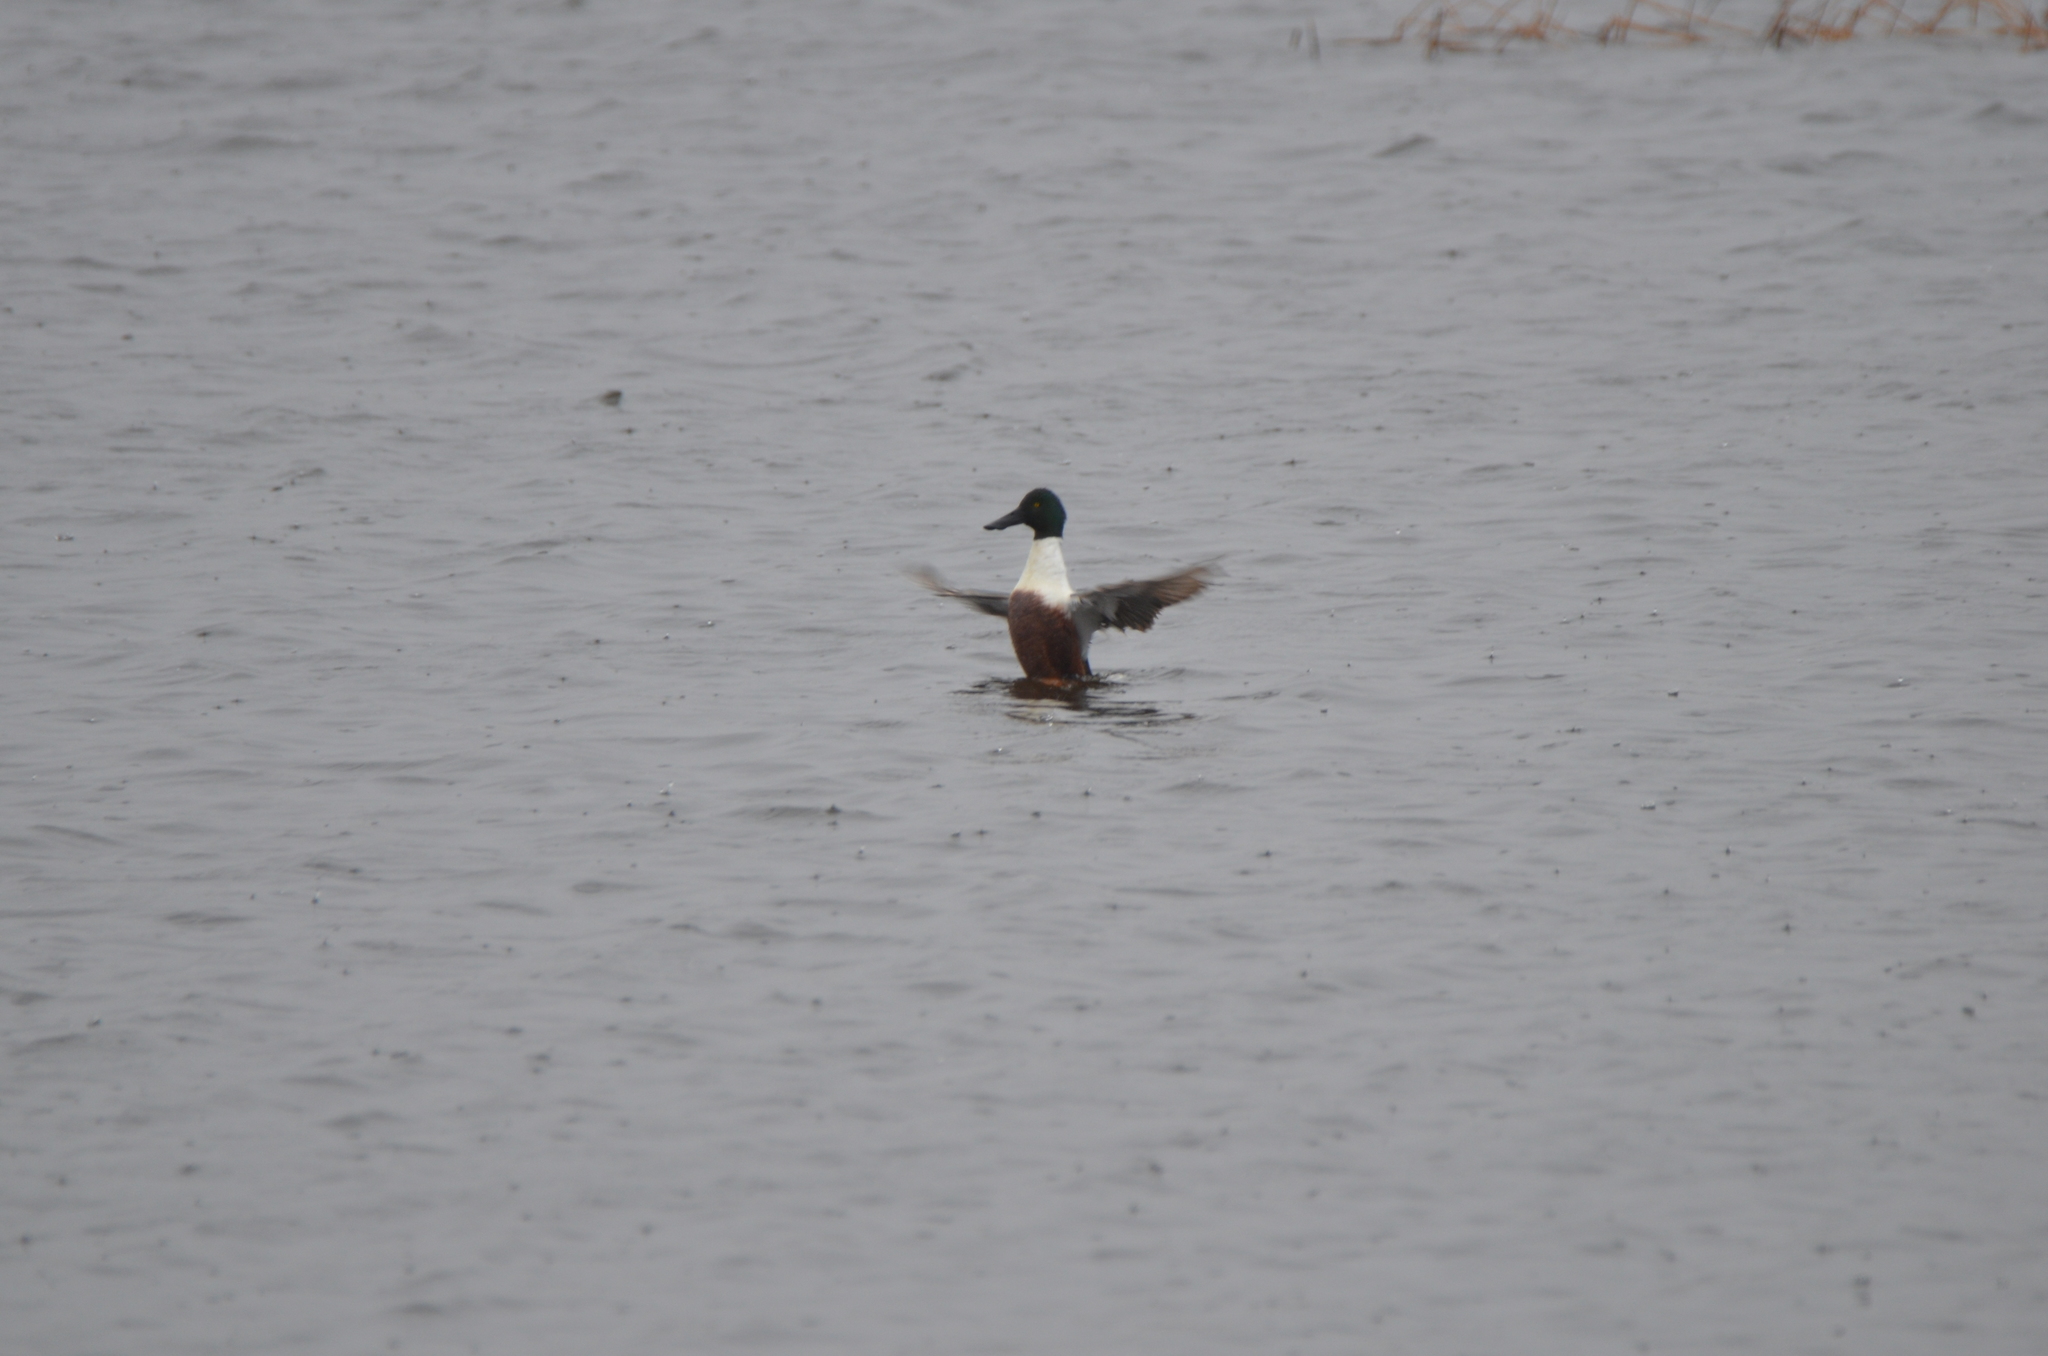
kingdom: Animalia
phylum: Chordata
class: Aves
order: Anseriformes
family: Anatidae
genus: Spatula
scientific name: Spatula clypeata
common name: Northern shoveler
